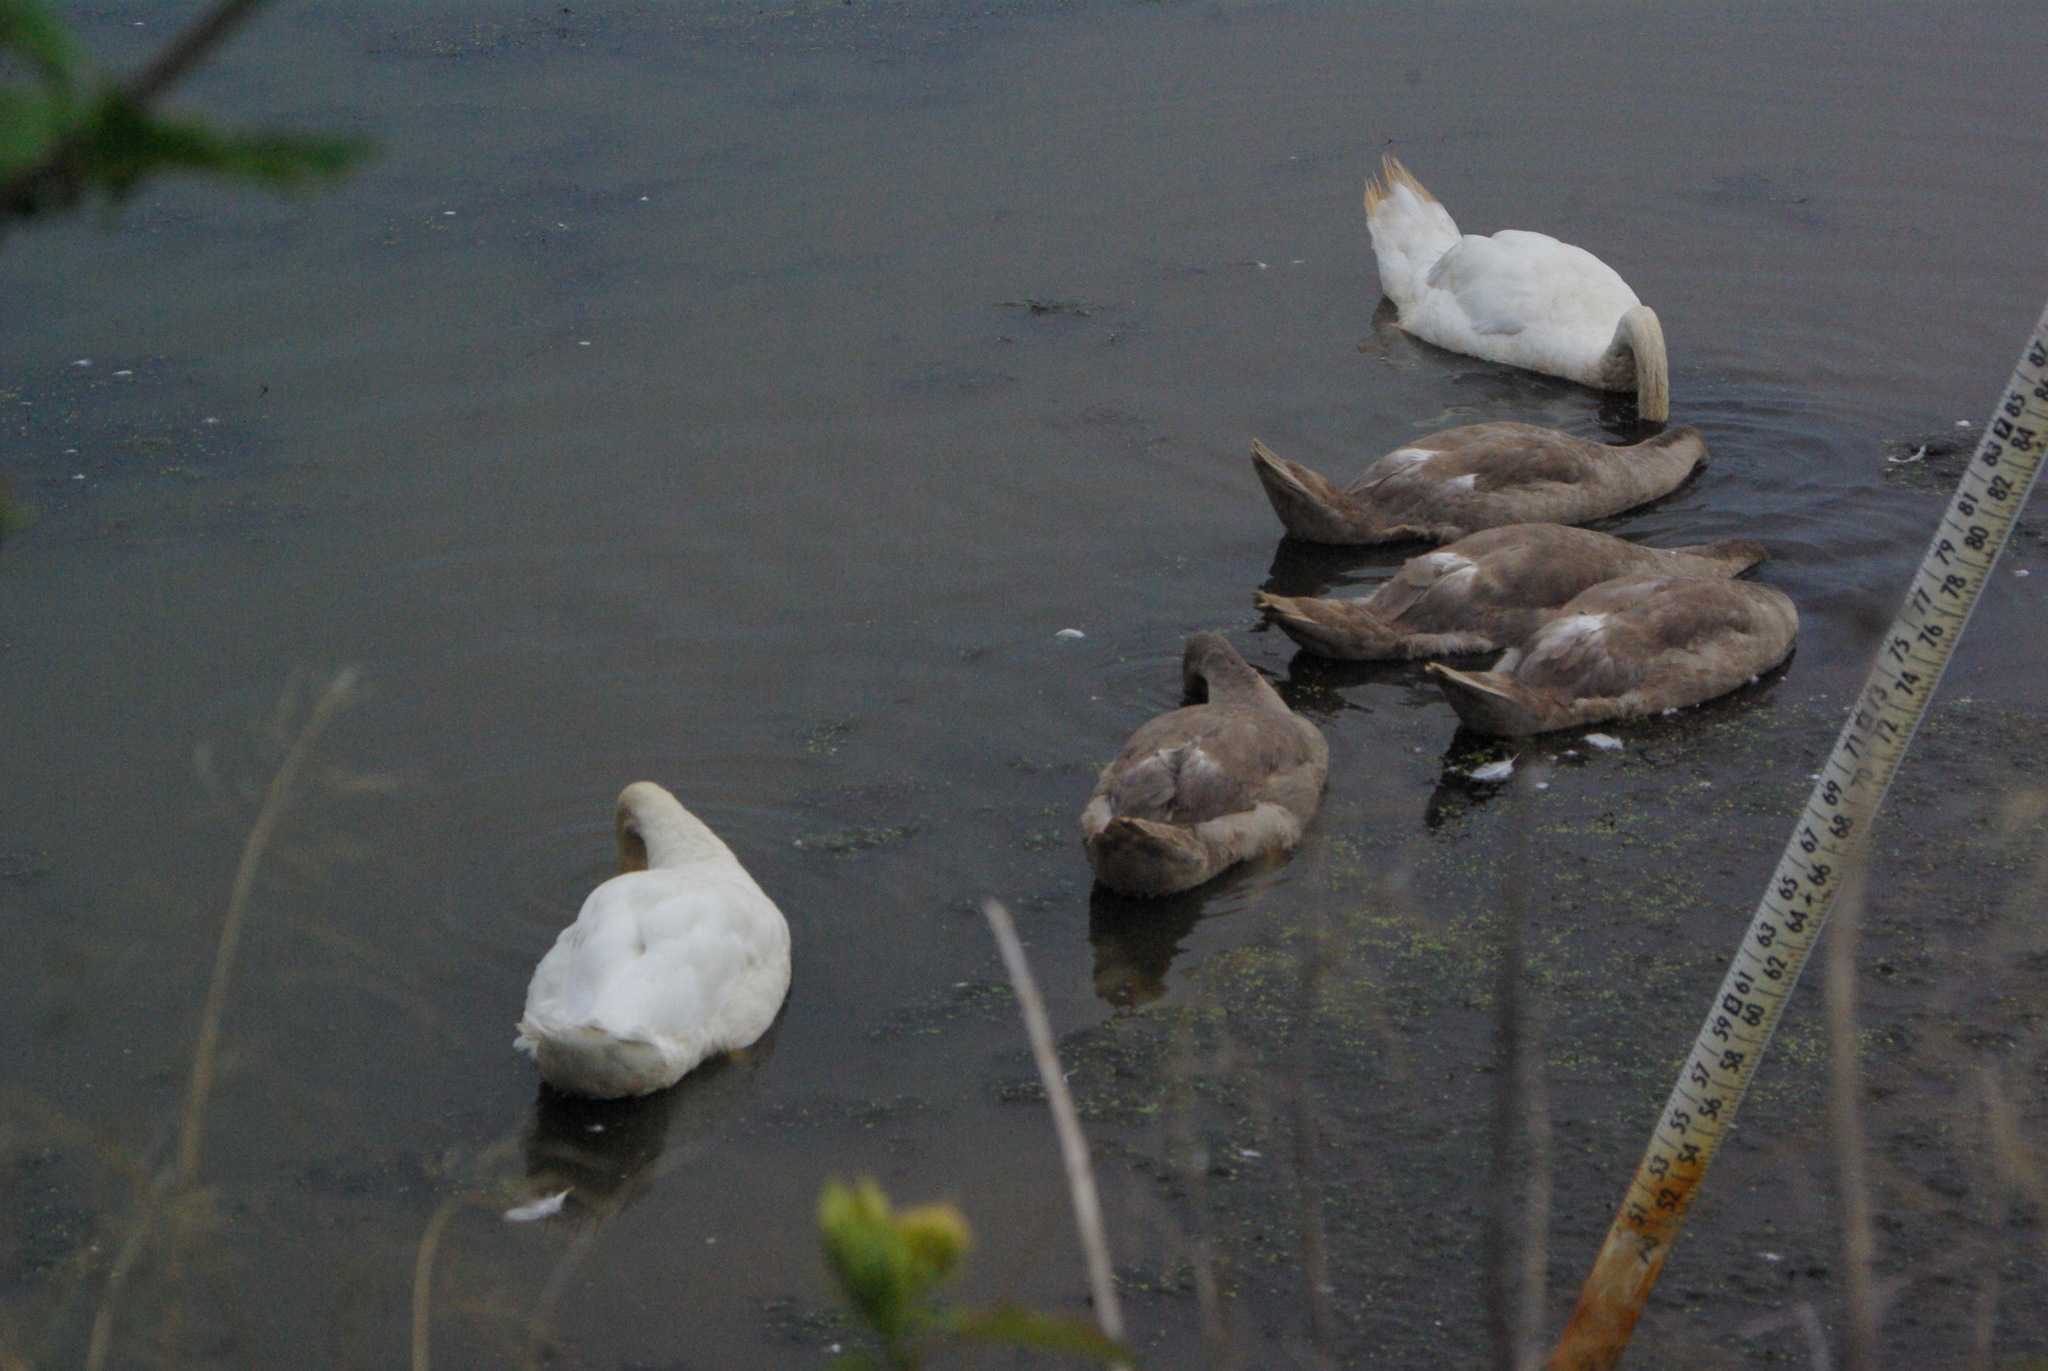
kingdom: Animalia
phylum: Chordata
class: Aves
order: Anseriformes
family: Anatidae
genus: Cygnus
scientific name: Cygnus olor
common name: Mute swan
